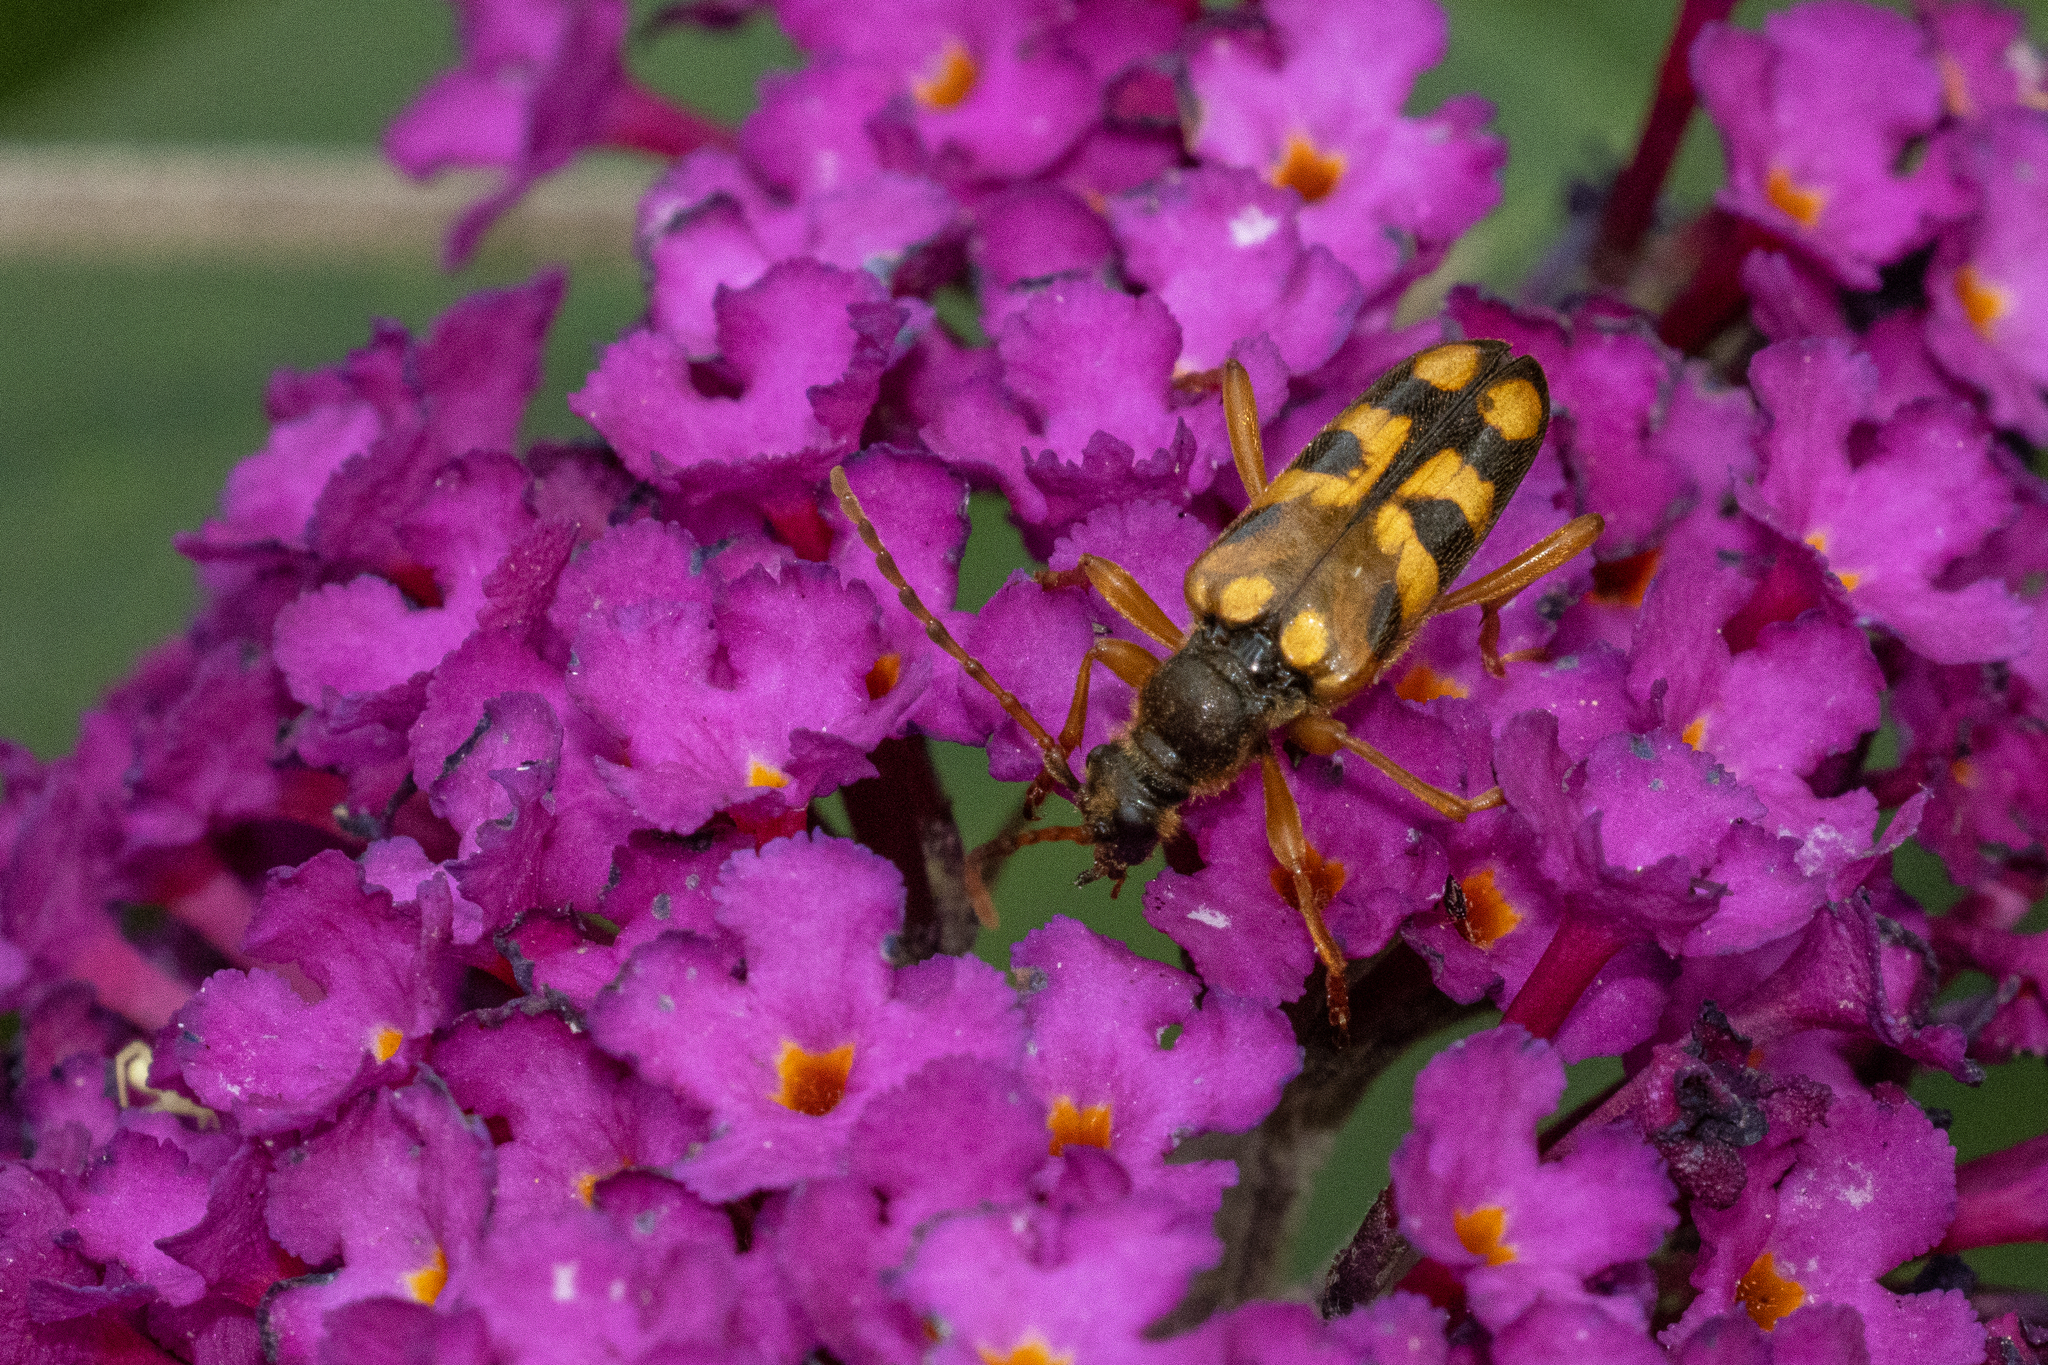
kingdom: Animalia
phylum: Arthropoda
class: Insecta
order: Coleoptera
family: Cerambycidae
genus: Xestoleptura
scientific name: Xestoleptura crassipes
